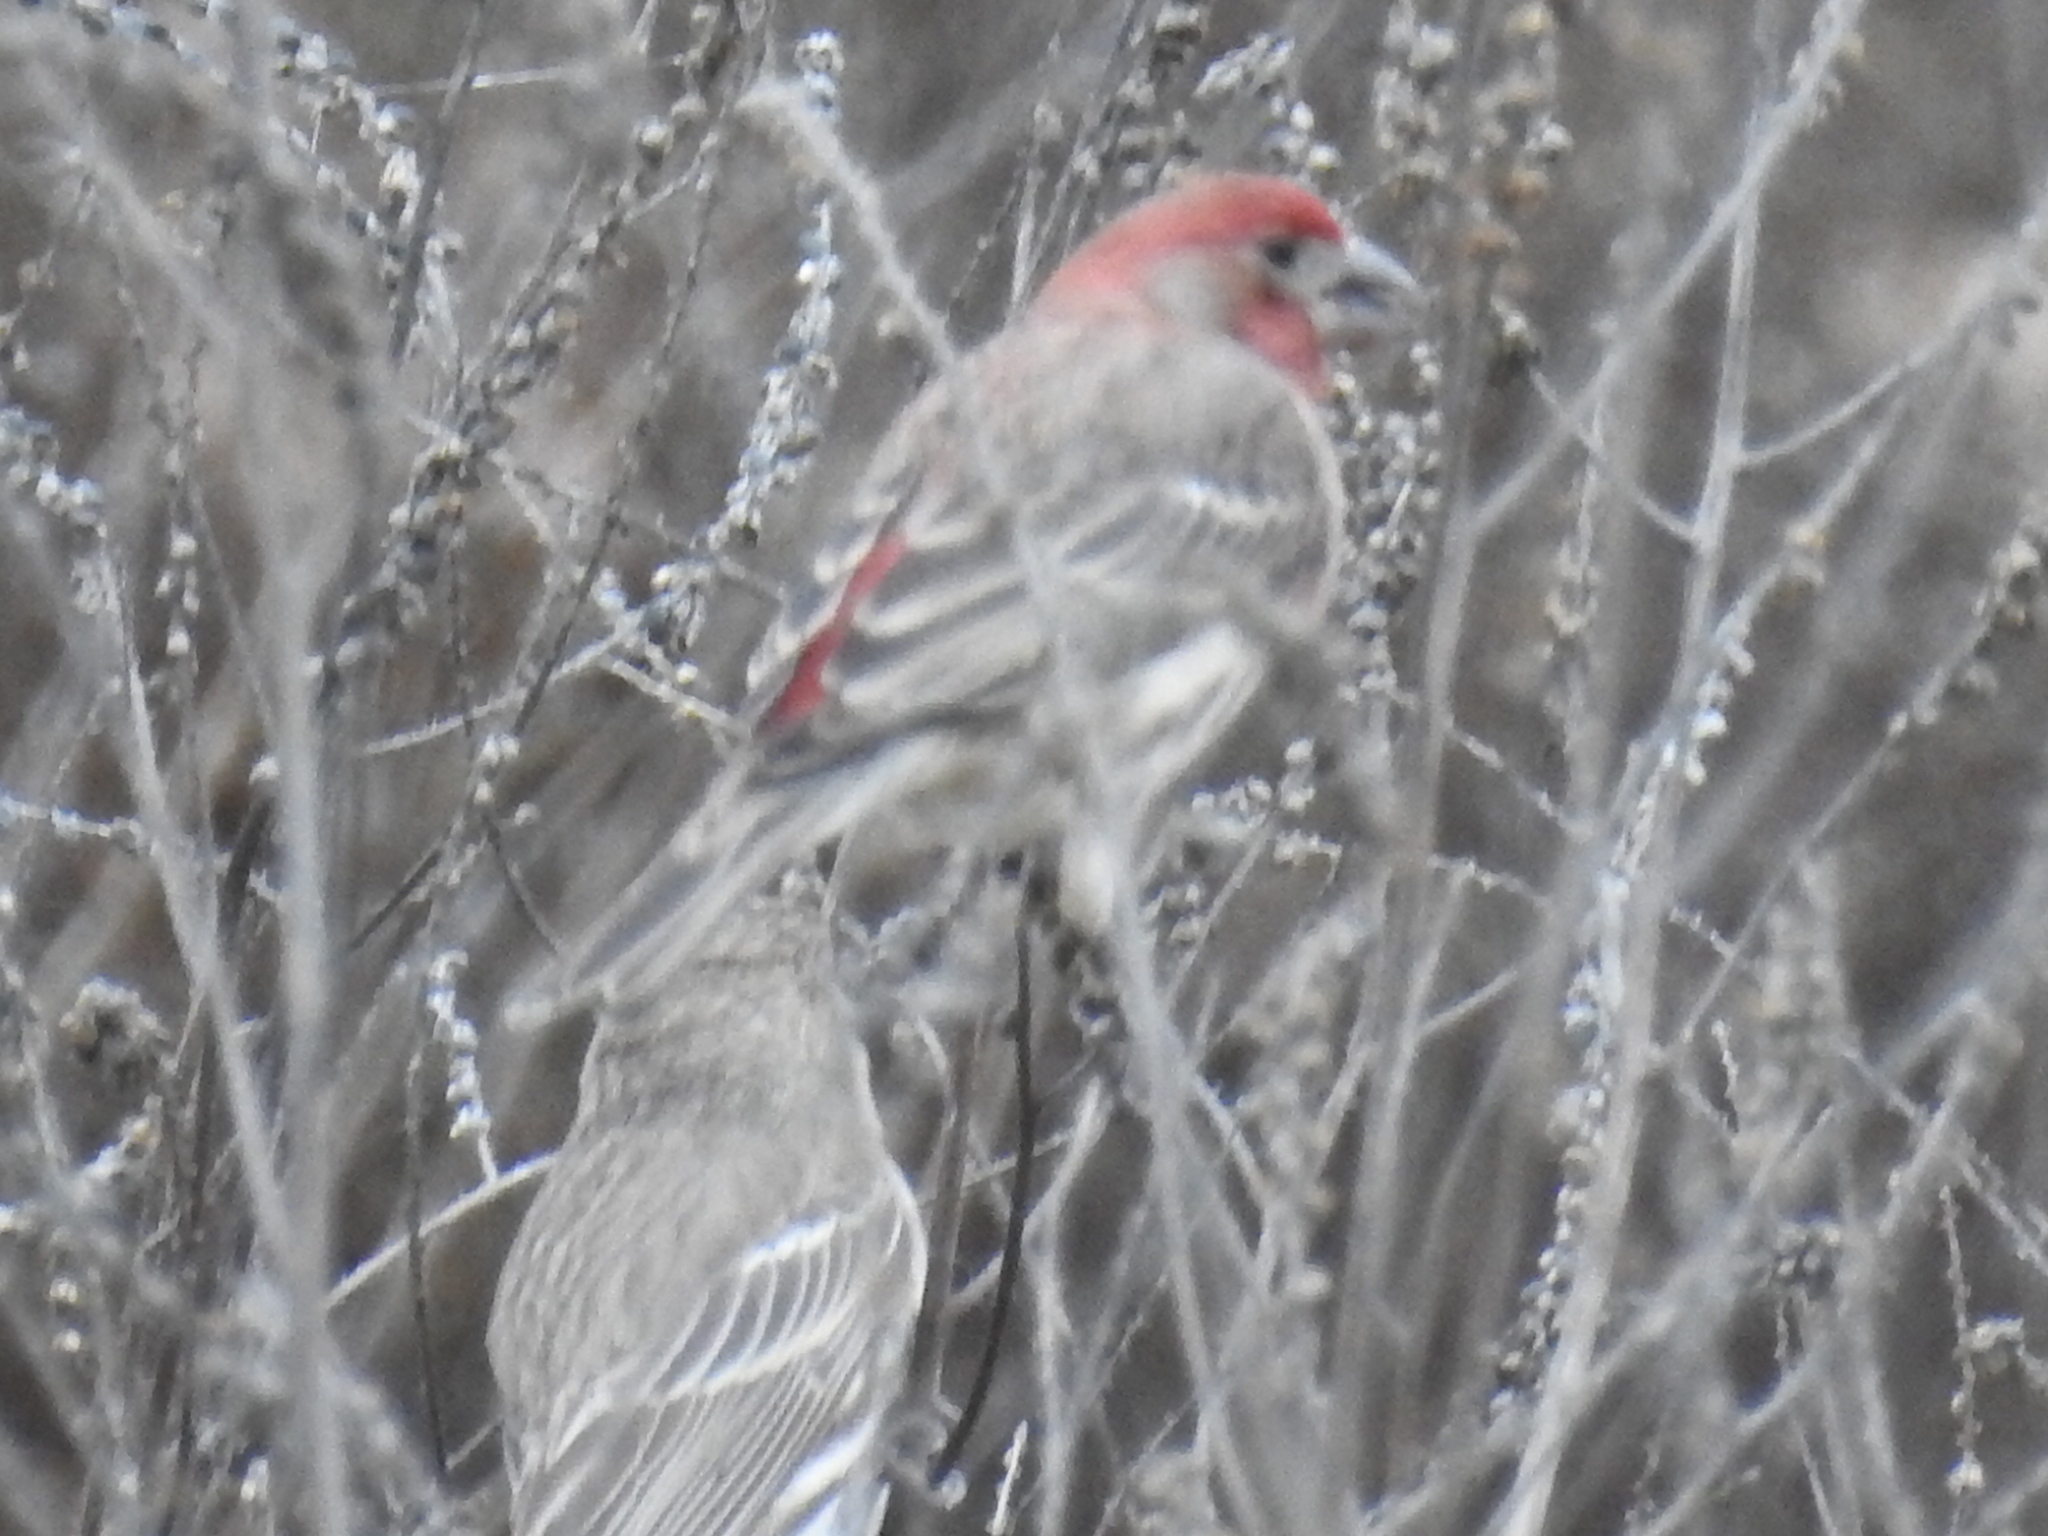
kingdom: Animalia
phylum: Chordata
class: Aves
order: Passeriformes
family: Fringillidae
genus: Haemorhous
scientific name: Haemorhous mexicanus
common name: House finch
